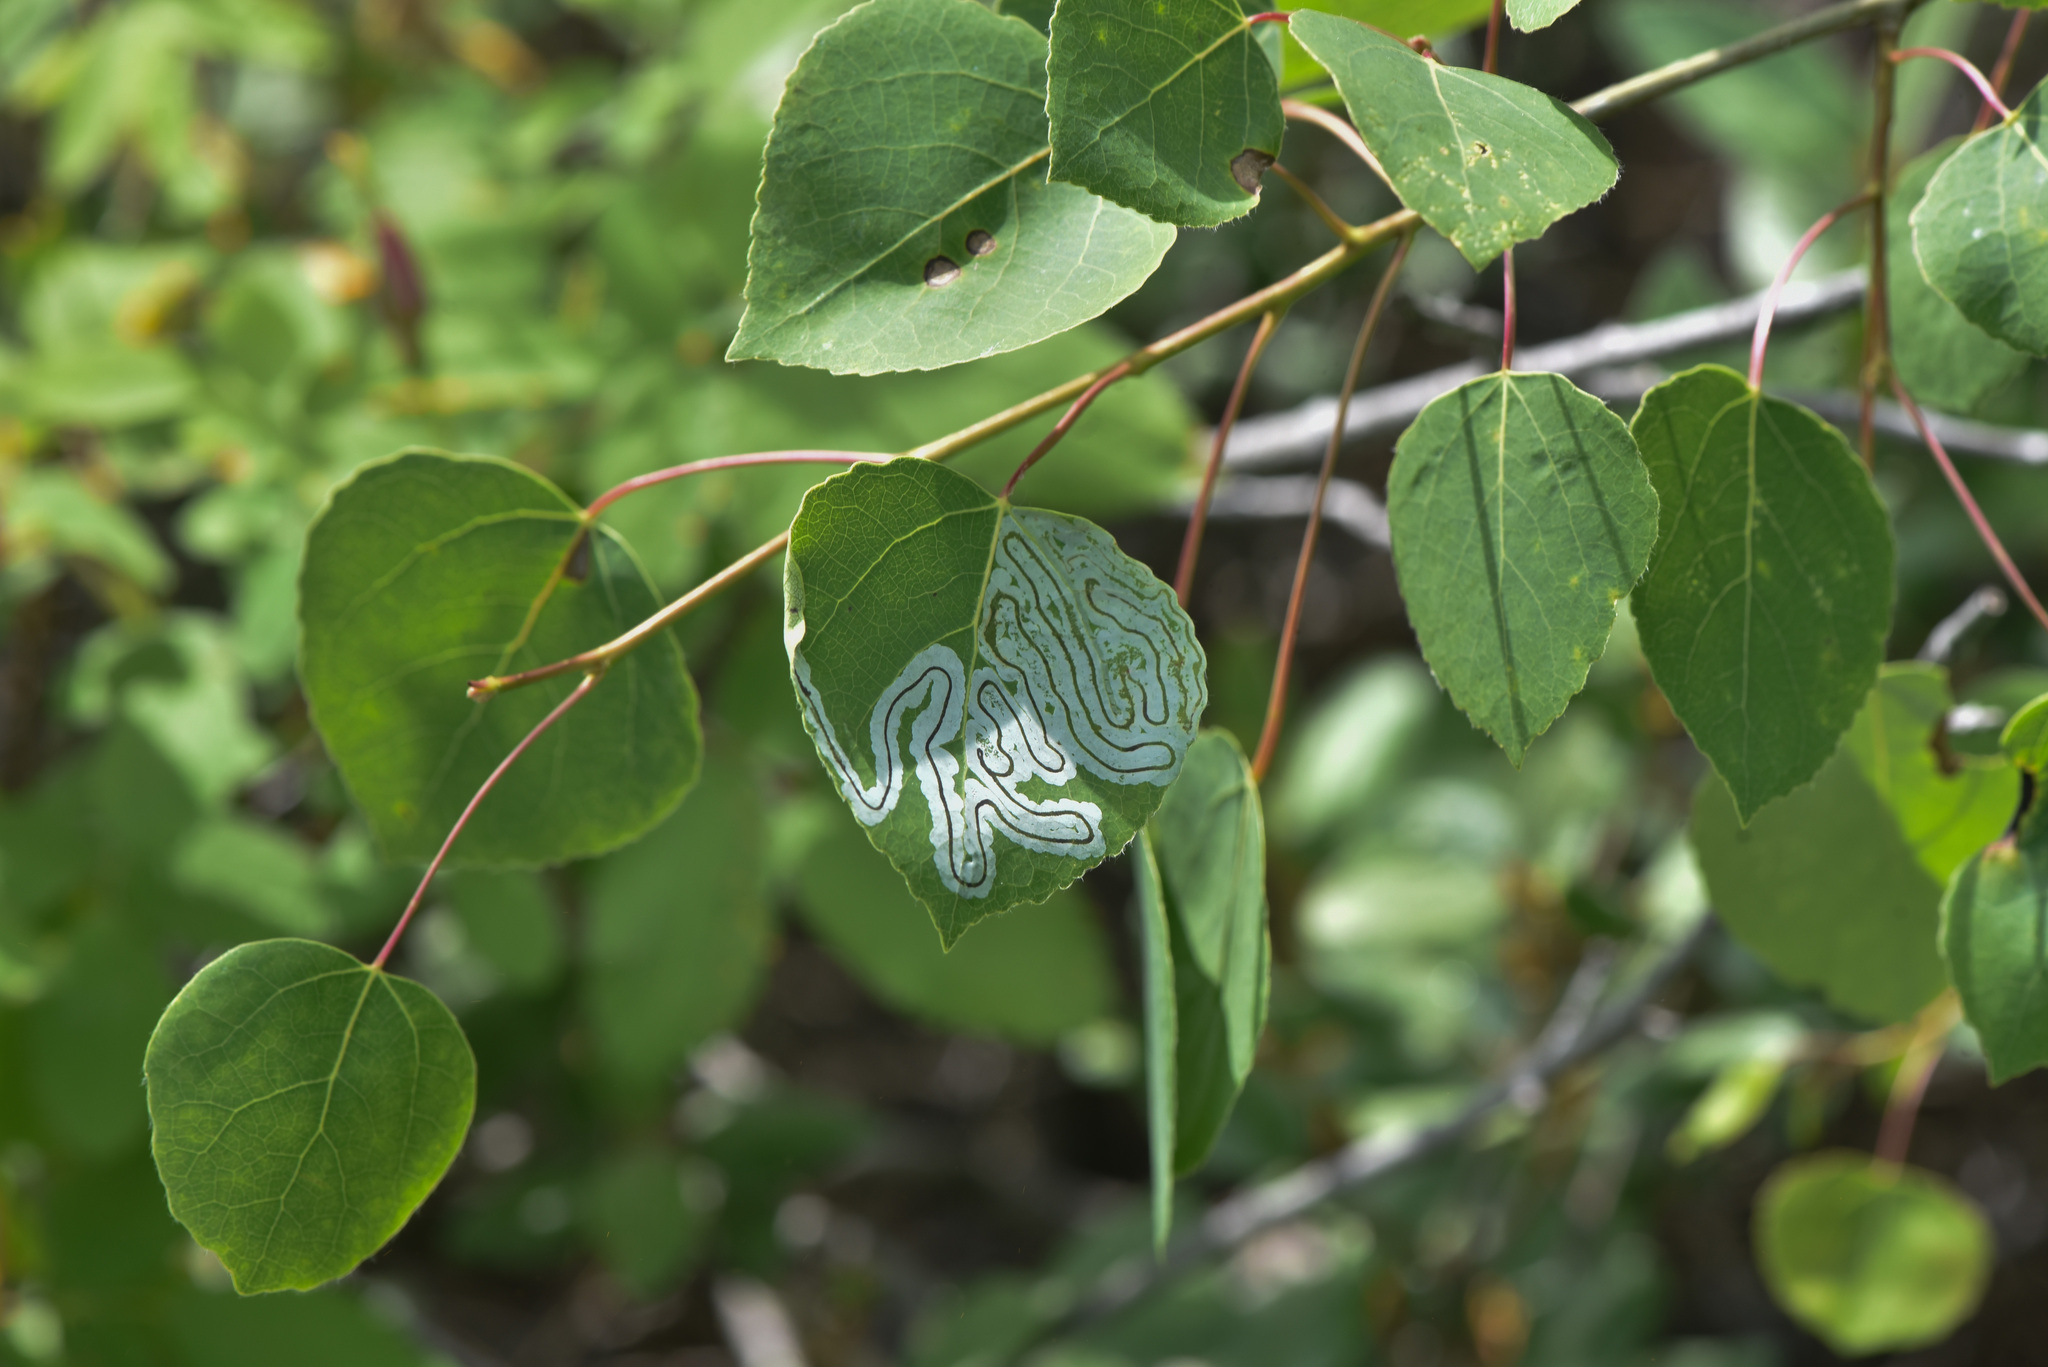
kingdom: Animalia
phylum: Arthropoda
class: Insecta
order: Lepidoptera
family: Gracillariidae
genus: Phyllocnistis
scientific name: Phyllocnistis populiella
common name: Aspen serpentine leafminer moth
